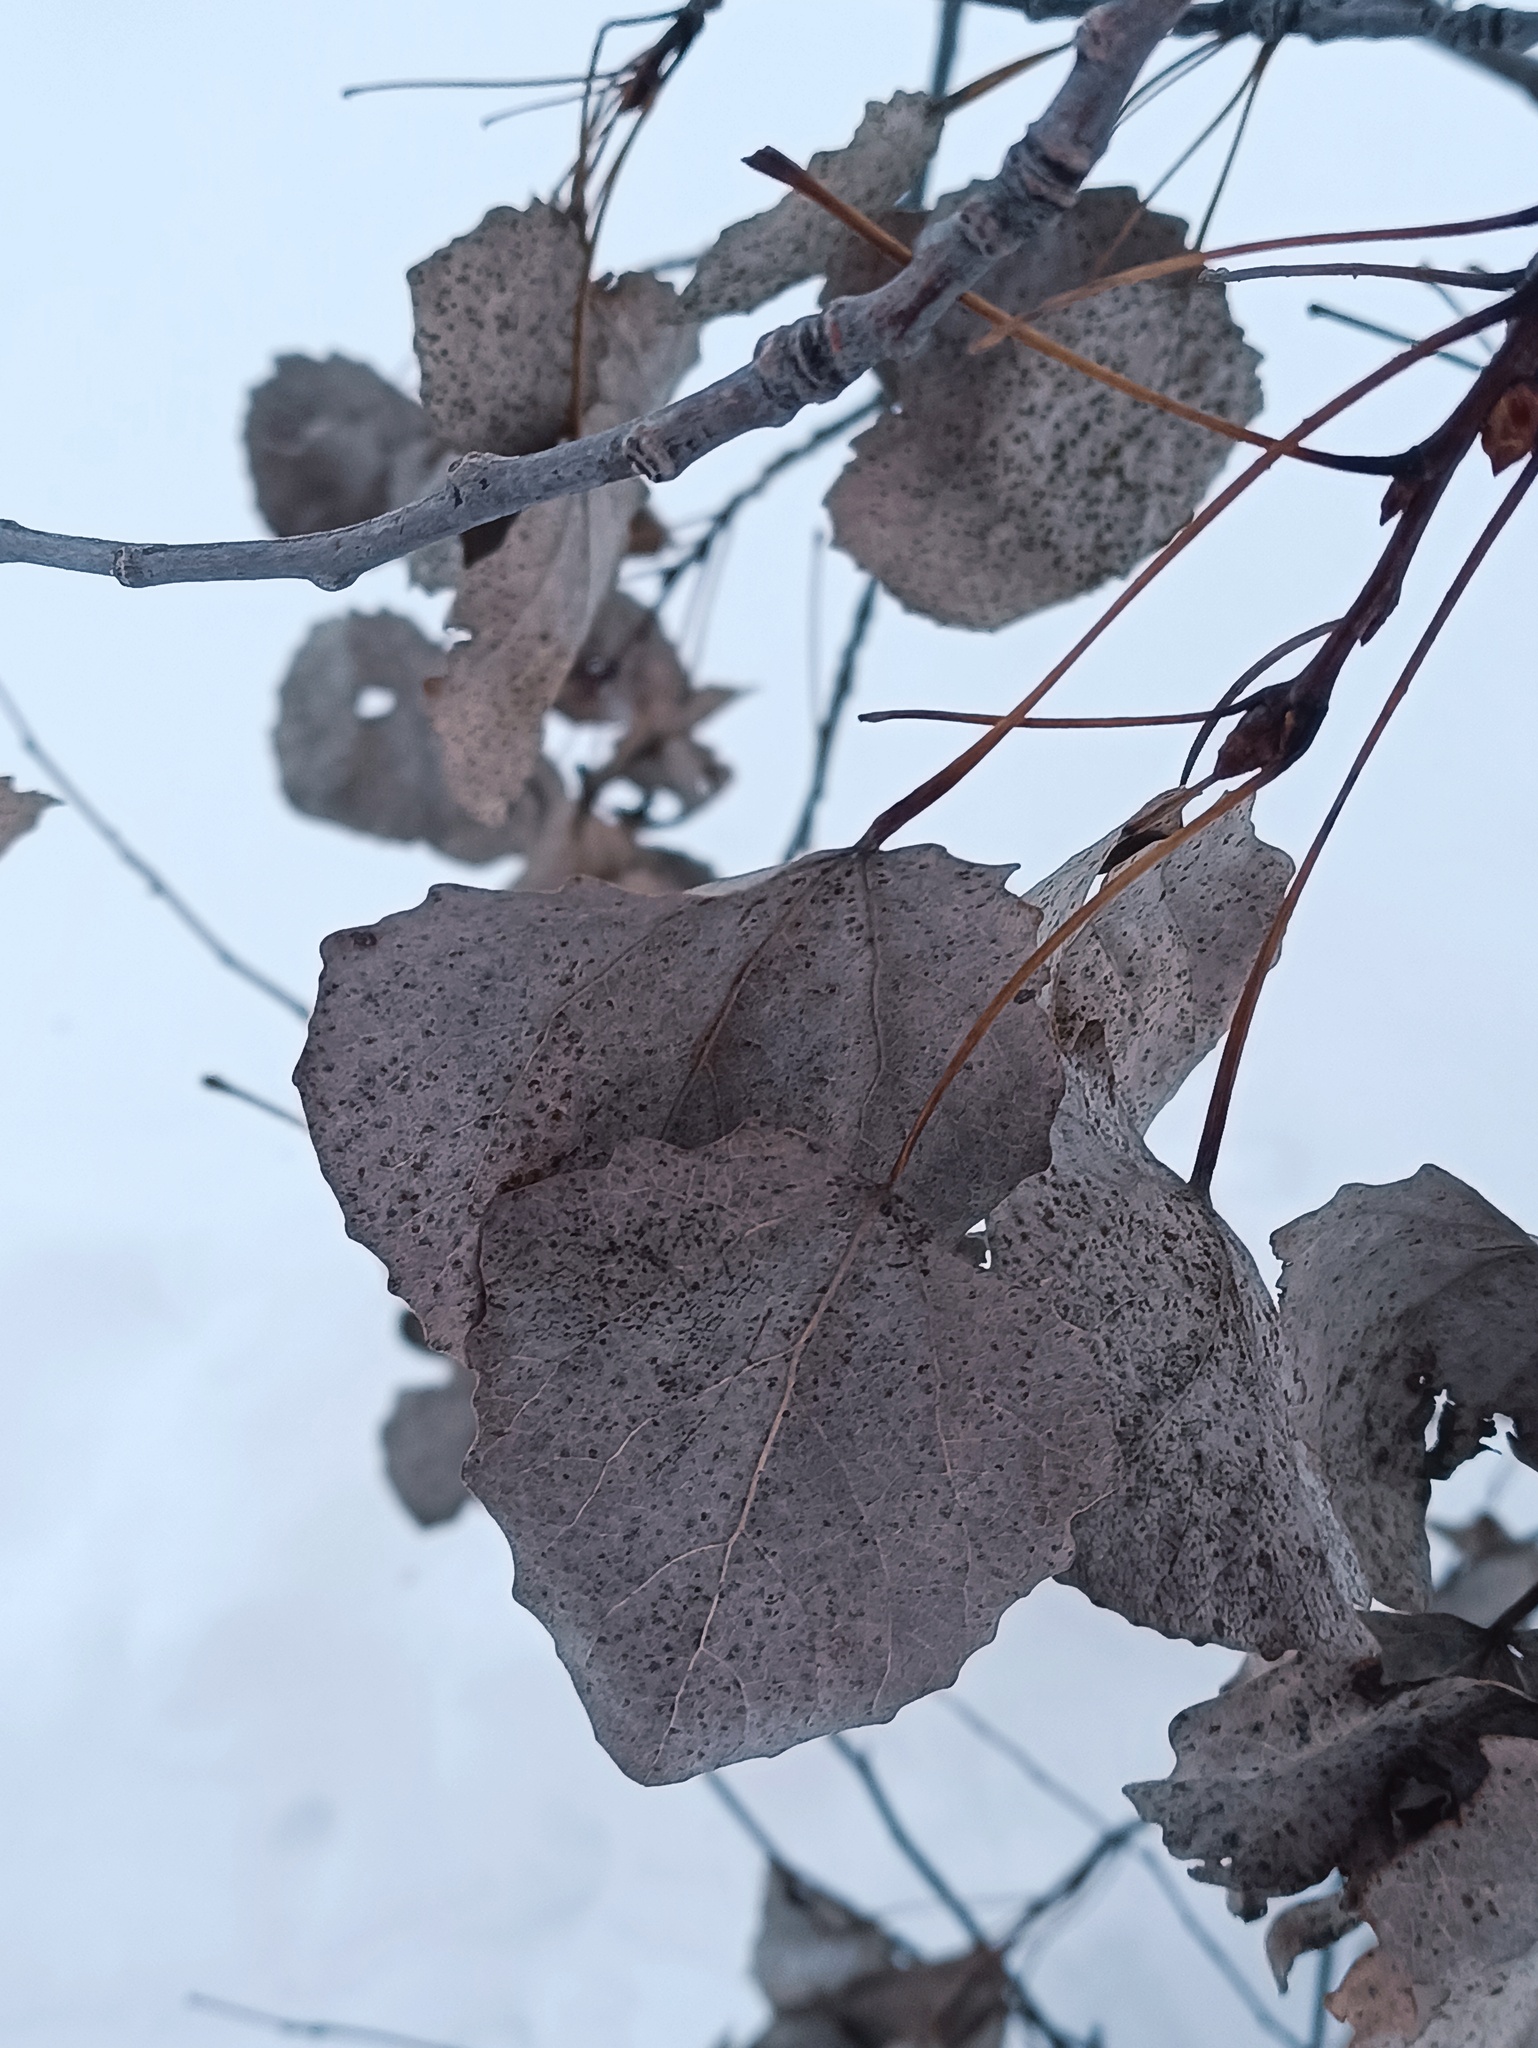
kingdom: Plantae
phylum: Tracheophyta
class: Magnoliopsida
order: Malpighiales
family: Salicaceae
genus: Populus
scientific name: Populus tremula
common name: European aspen
